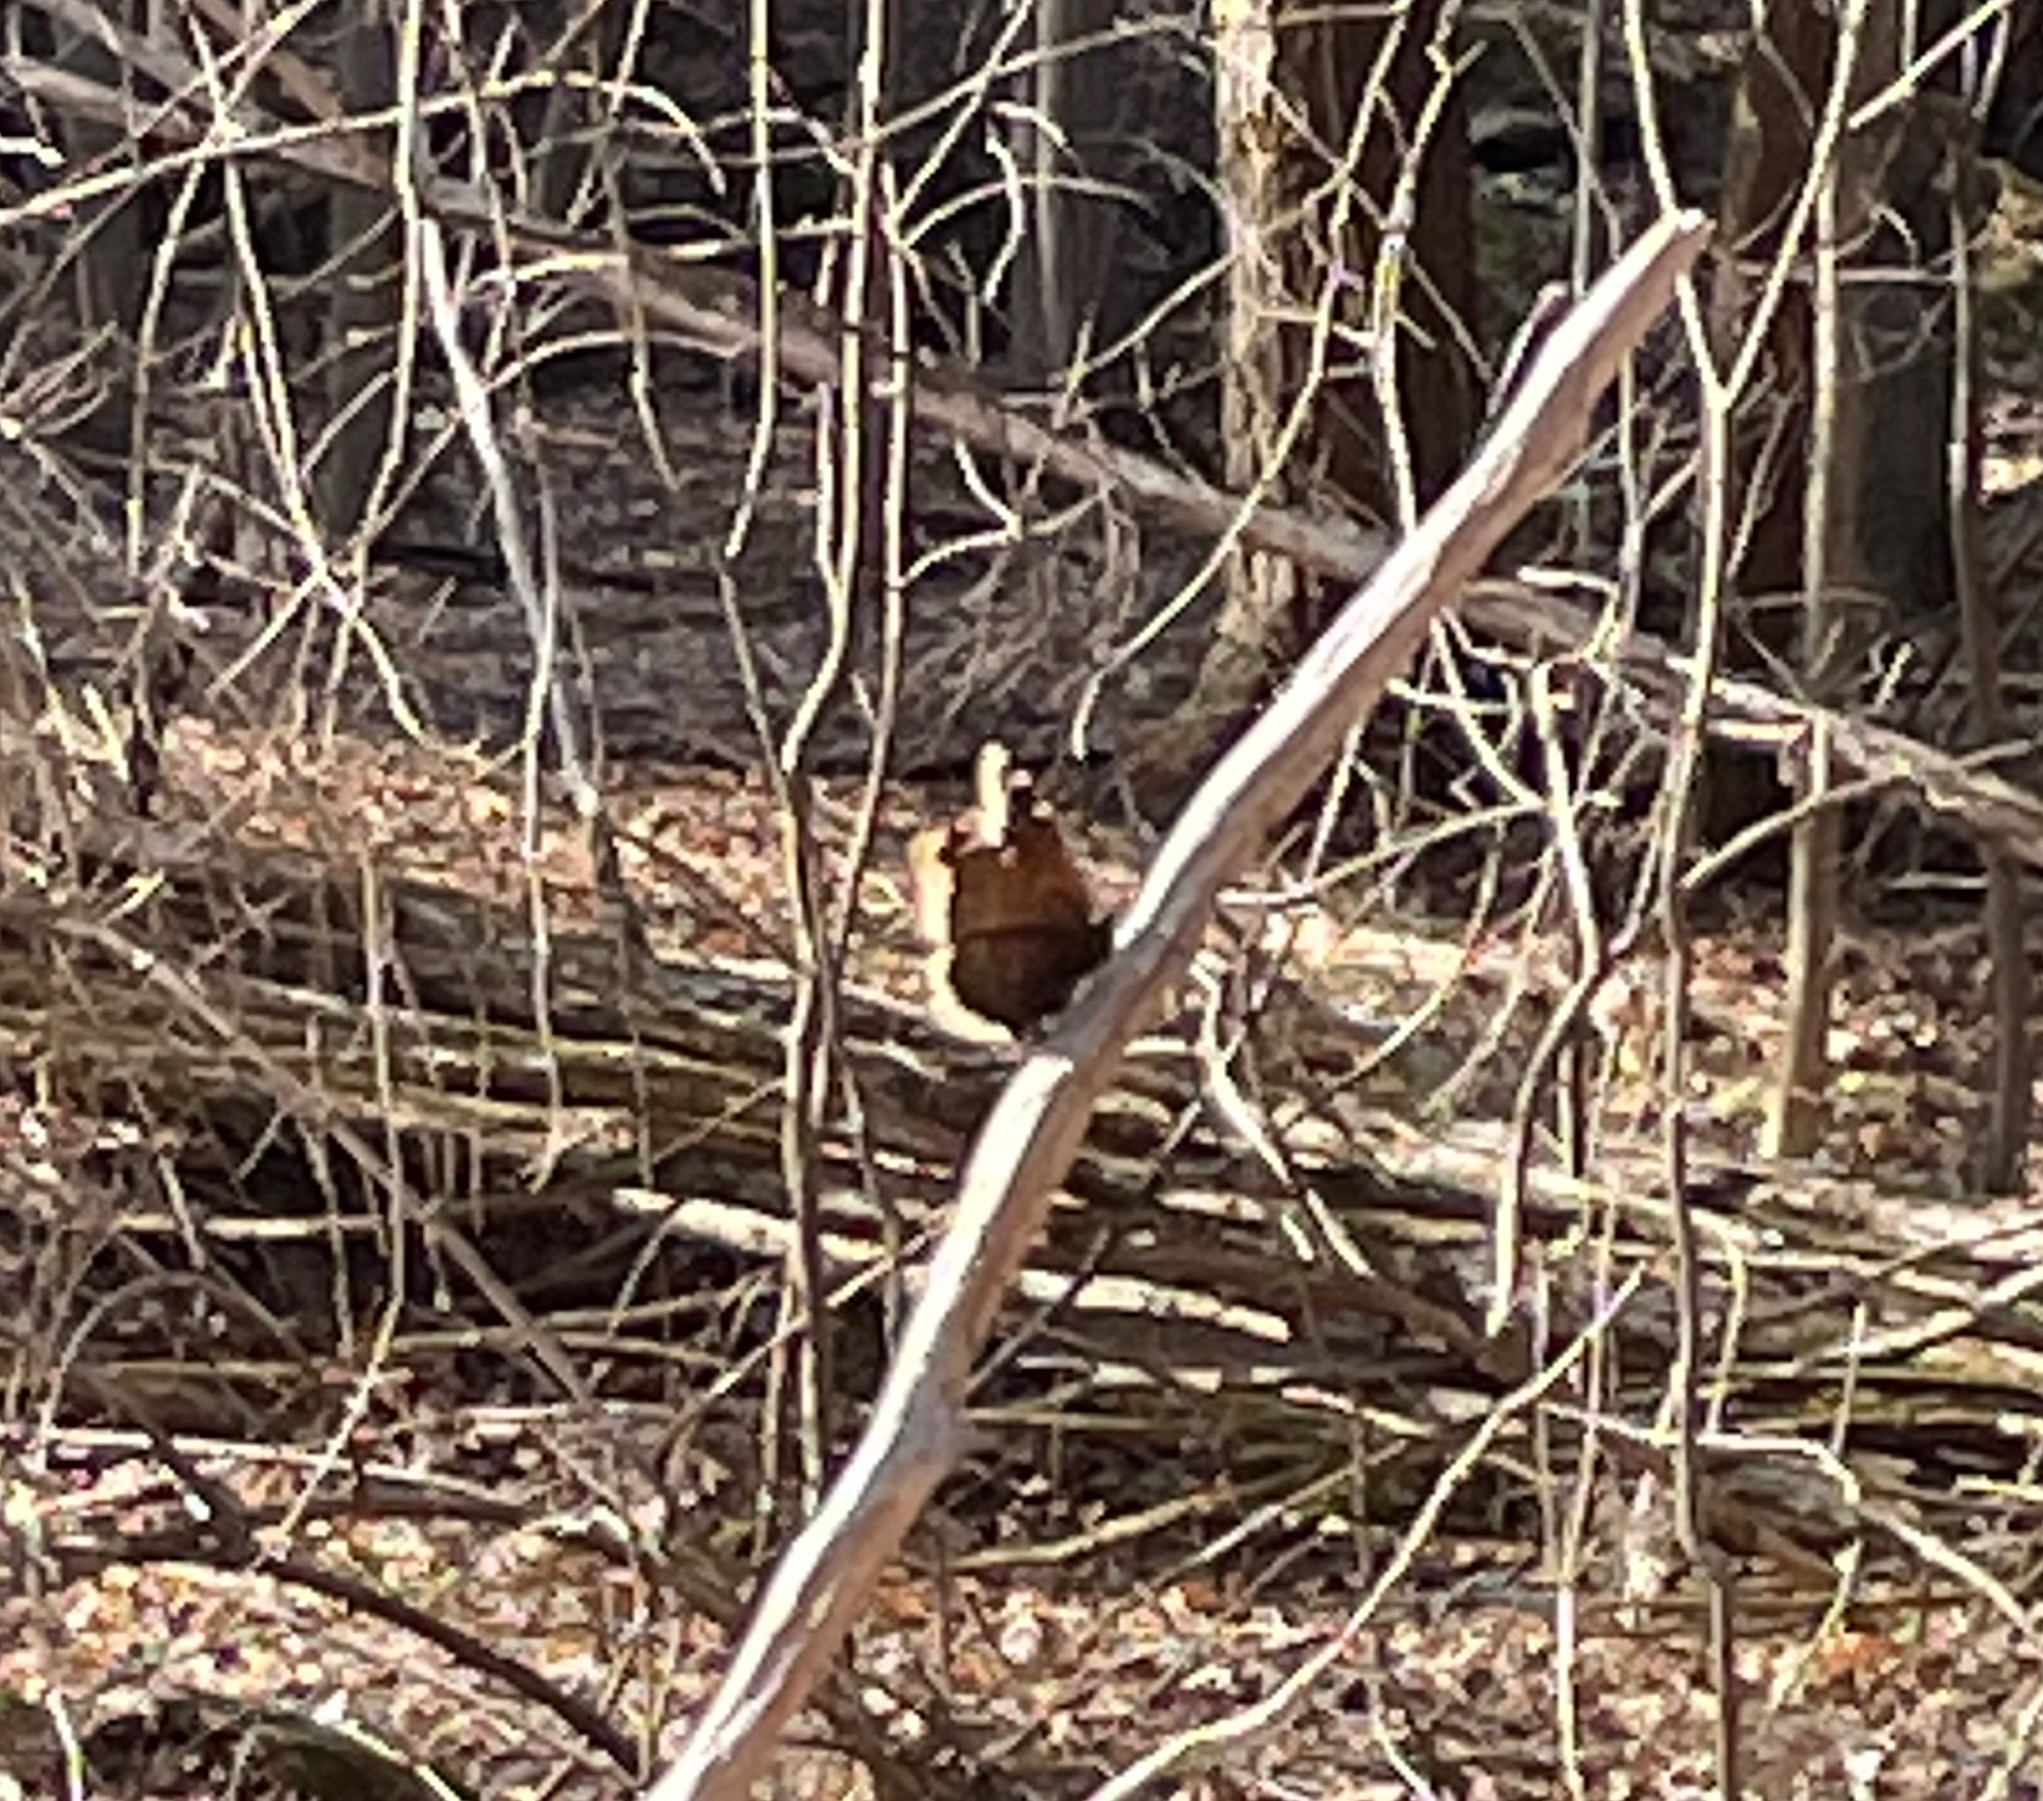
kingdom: Animalia
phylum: Arthropoda
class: Insecta
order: Lepidoptera
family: Nymphalidae
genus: Nymphalis
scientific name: Nymphalis antiopa
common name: Camberwell beauty
